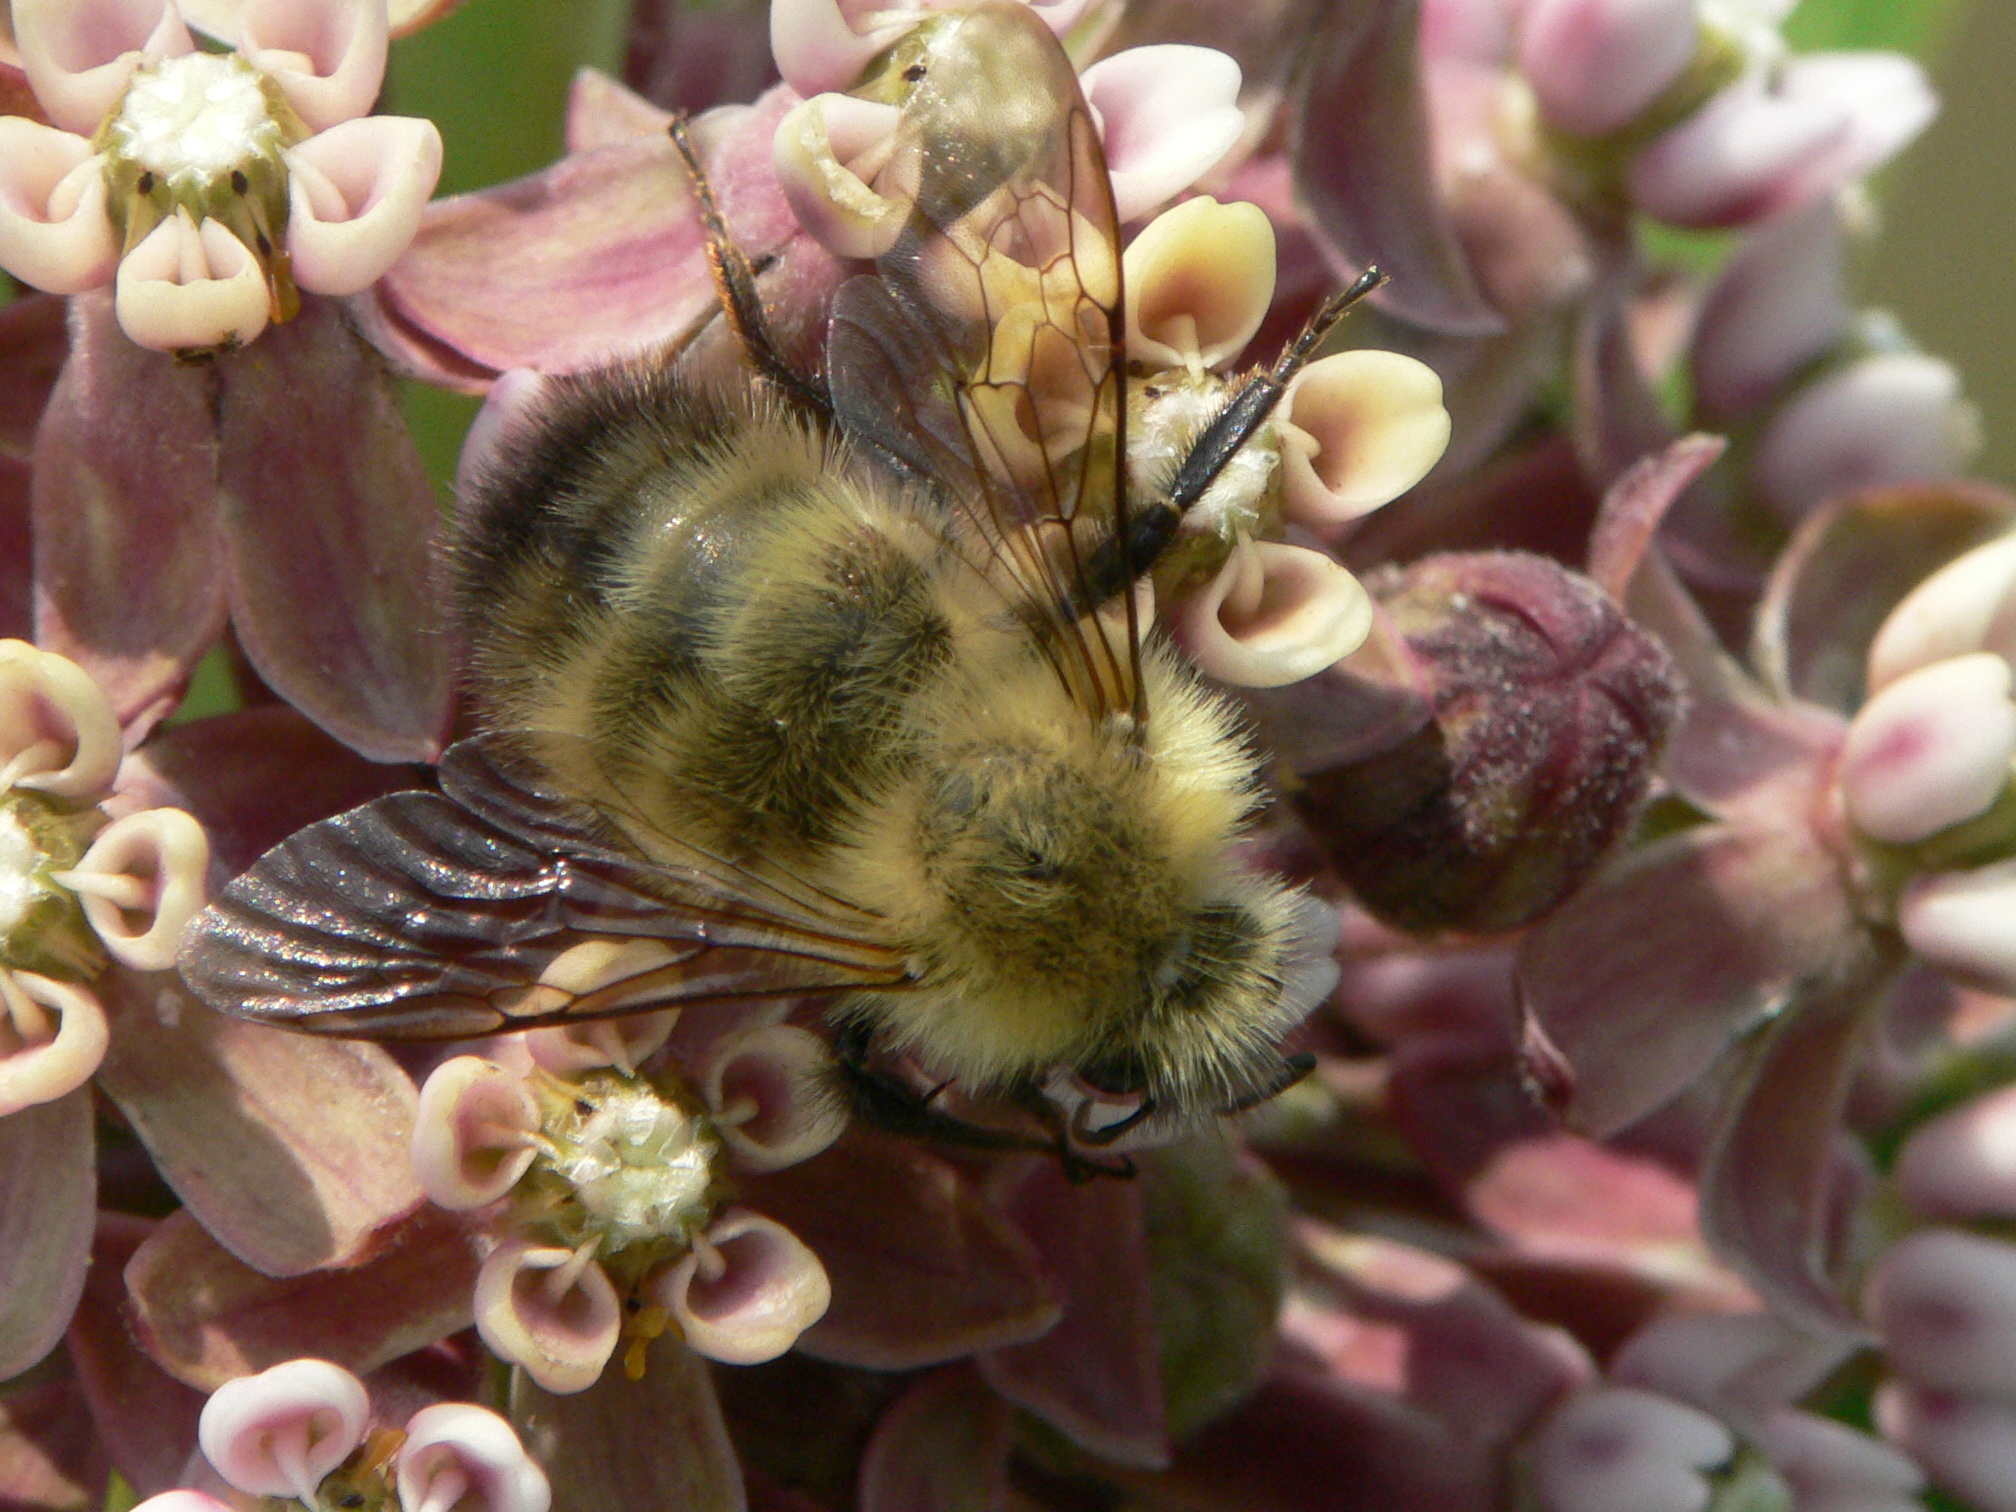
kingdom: Animalia
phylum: Arthropoda
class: Insecta
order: Hymenoptera
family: Apidae
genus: Bombus
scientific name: Bombus perplexus
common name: Confusing bumble bee
